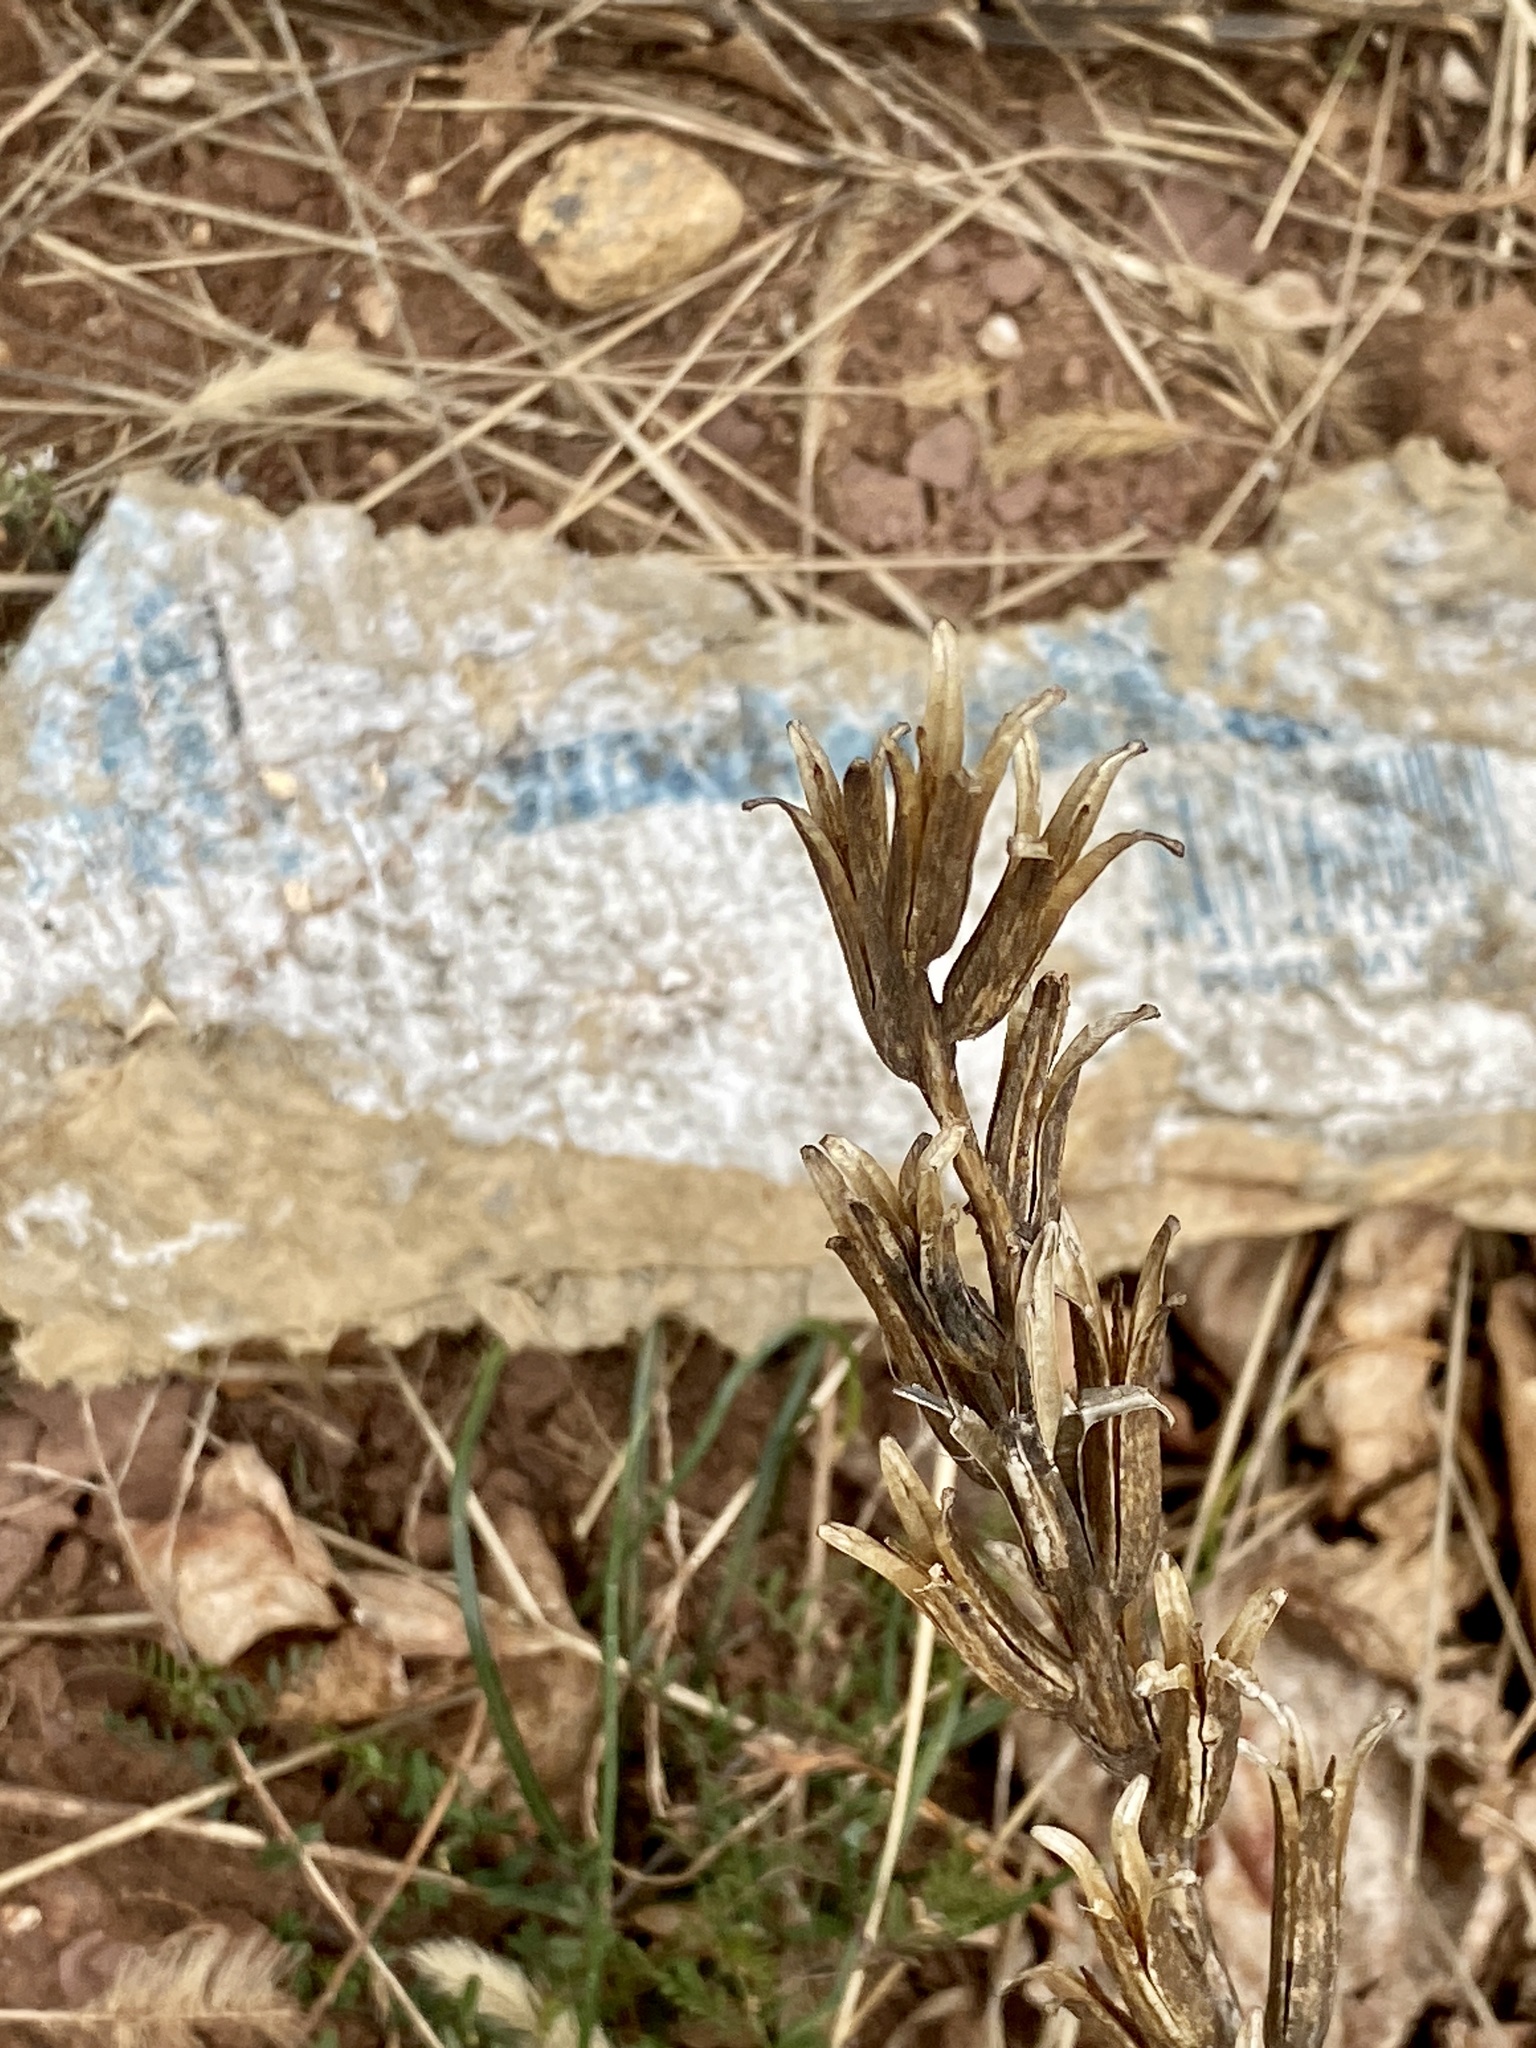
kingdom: Plantae
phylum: Tracheophyta
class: Magnoliopsida
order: Myrtales
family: Onagraceae
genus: Oenothera
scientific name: Oenothera biennis
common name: Common evening-primrose
